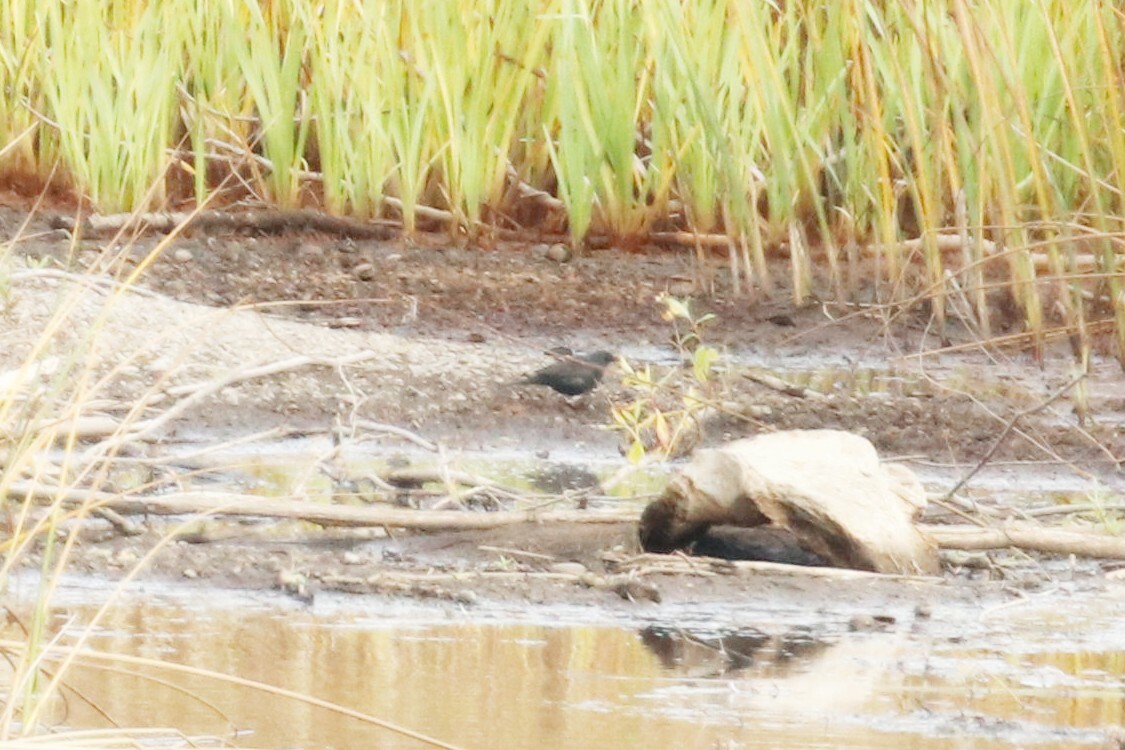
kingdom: Animalia
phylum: Chordata
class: Aves
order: Passeriformes
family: Turdidae
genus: Turdus
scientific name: Turdus merula
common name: Common blackbird
